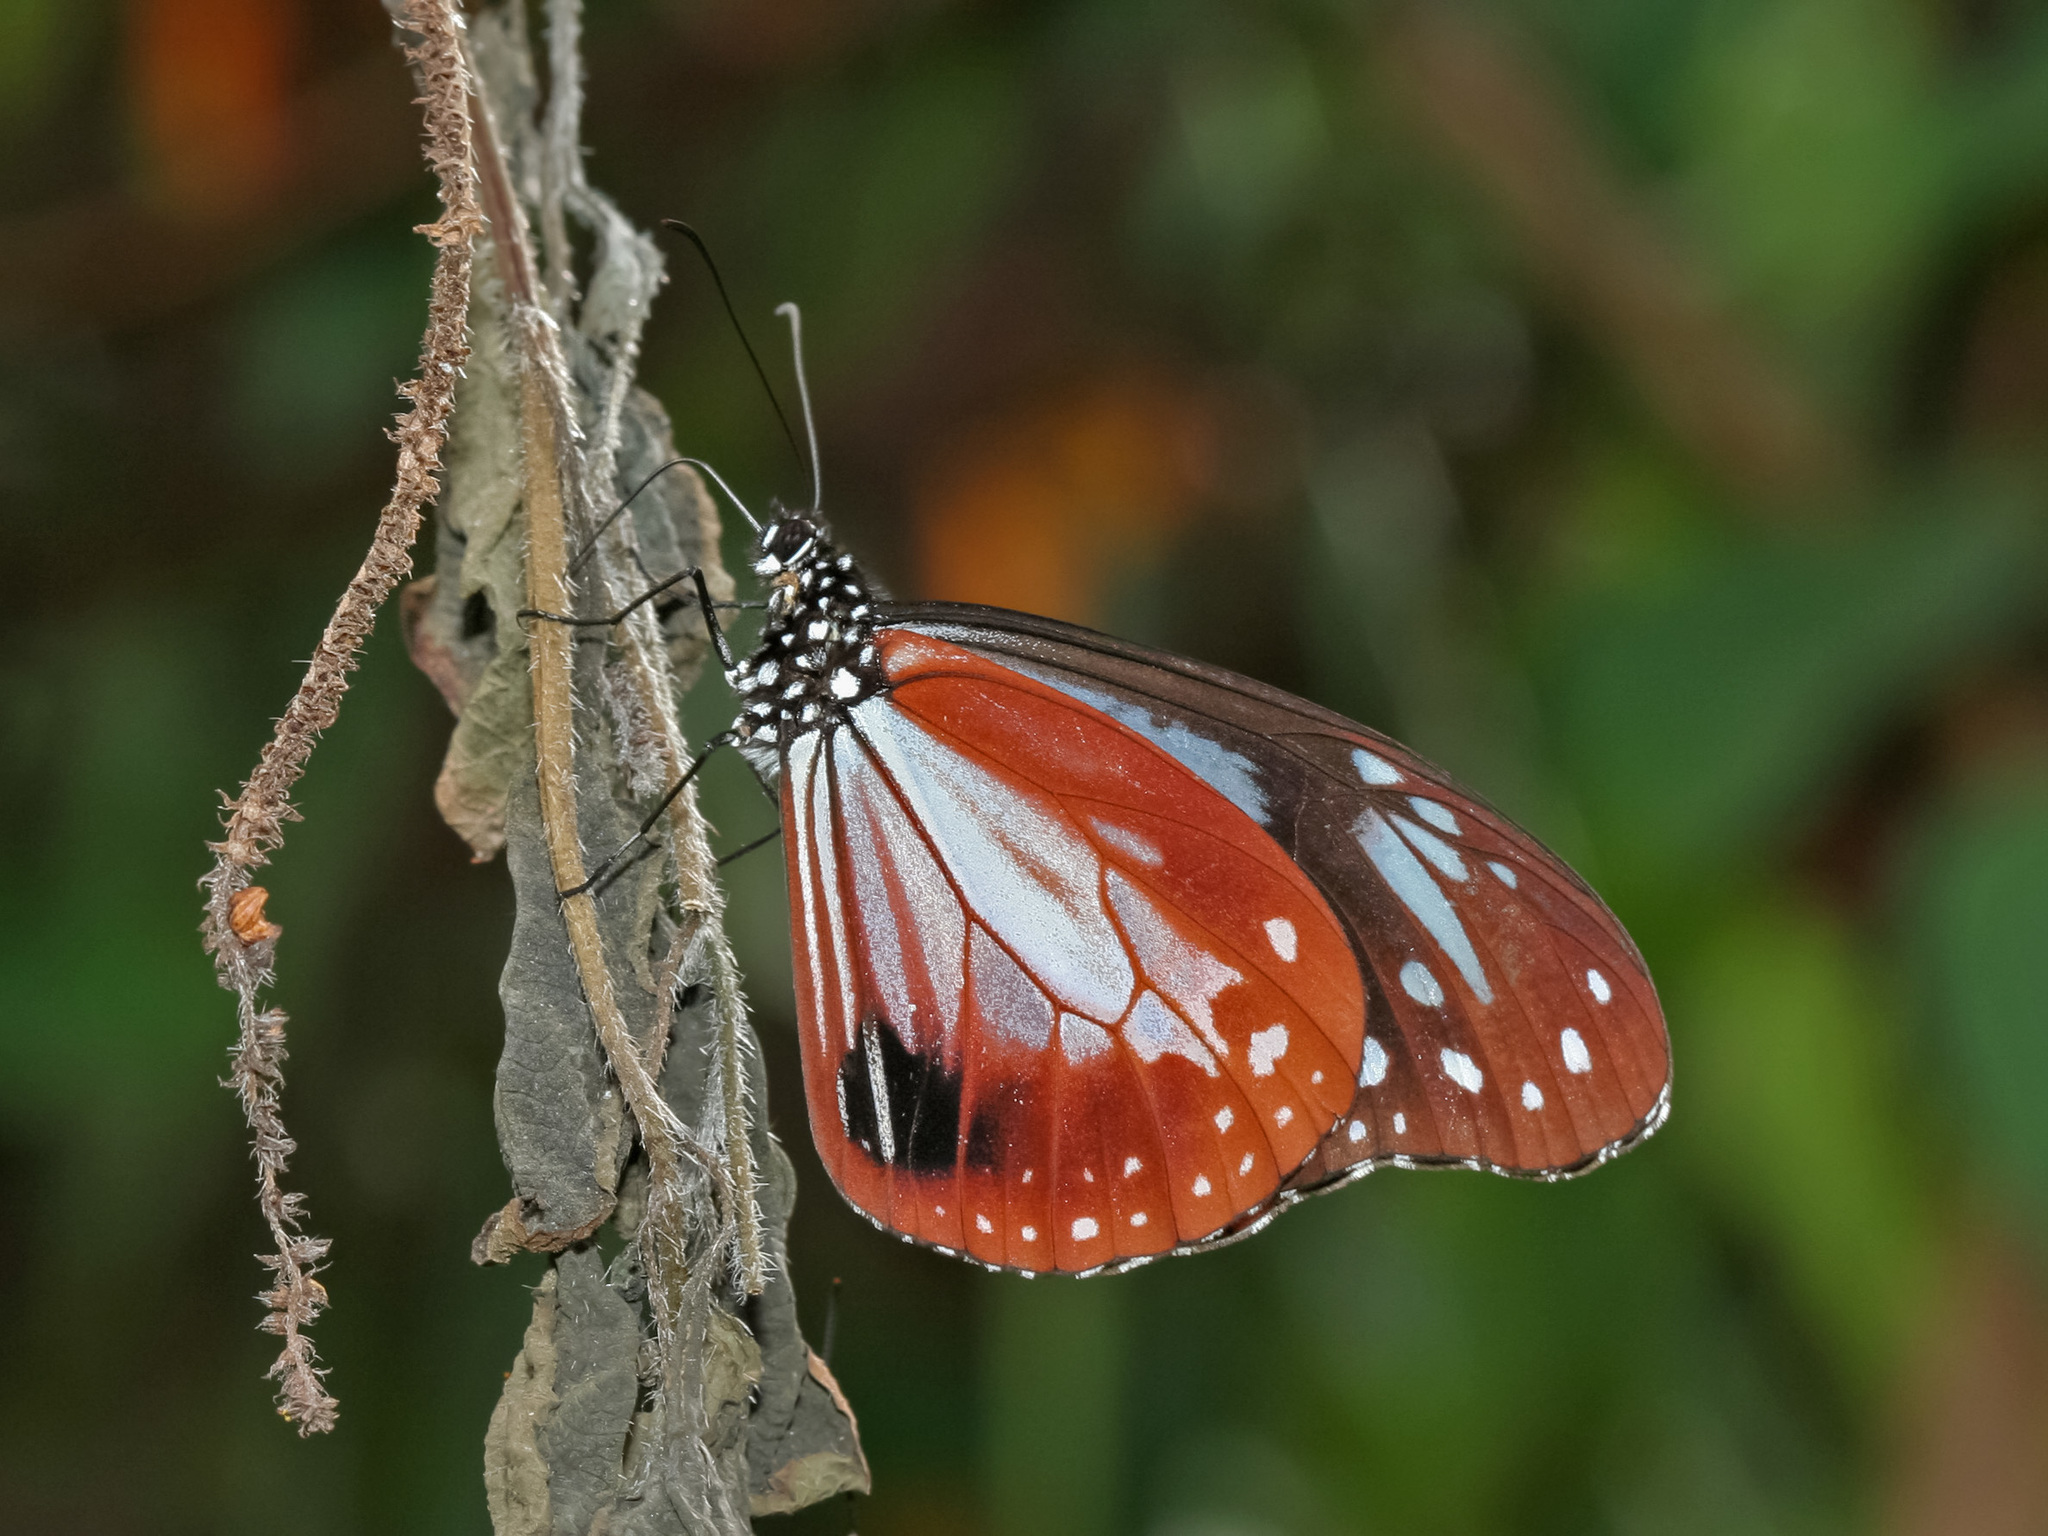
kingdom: Animalia
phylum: Arthropoda
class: Insecta
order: Lepidoptera
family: Nymphalidae
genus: Parantica
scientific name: Parantica sita
